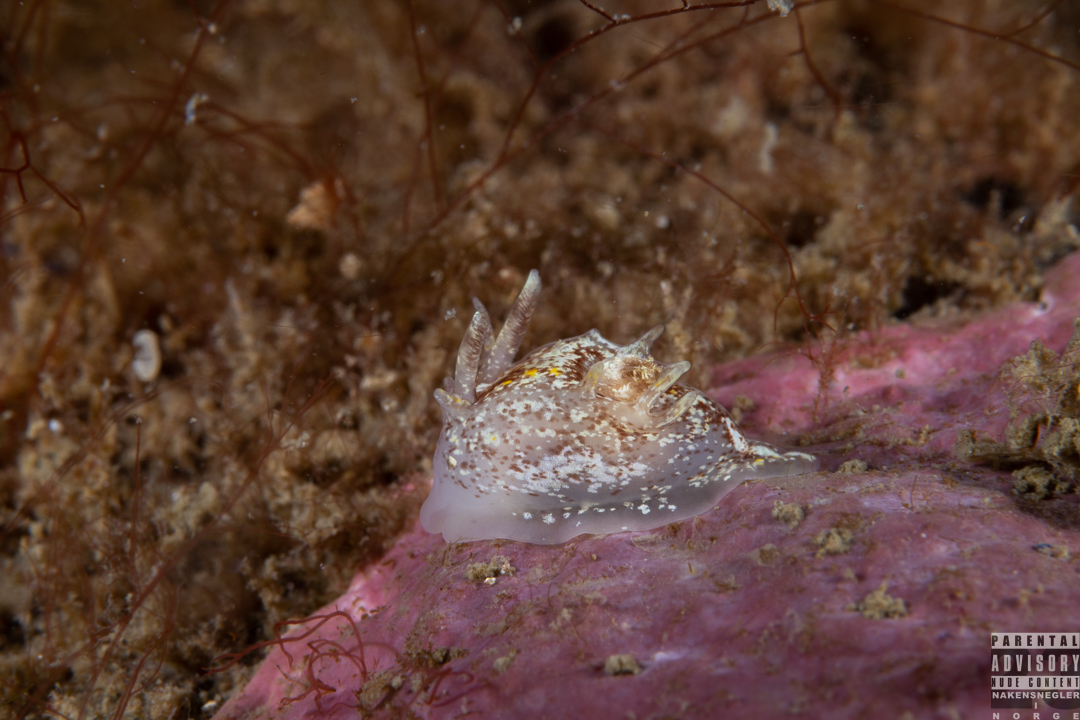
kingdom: Animalia
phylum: Mollusca
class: Gastropoda
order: Nudibranchia
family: Goniodorididae
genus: Okenia
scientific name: Okenia aspersa
